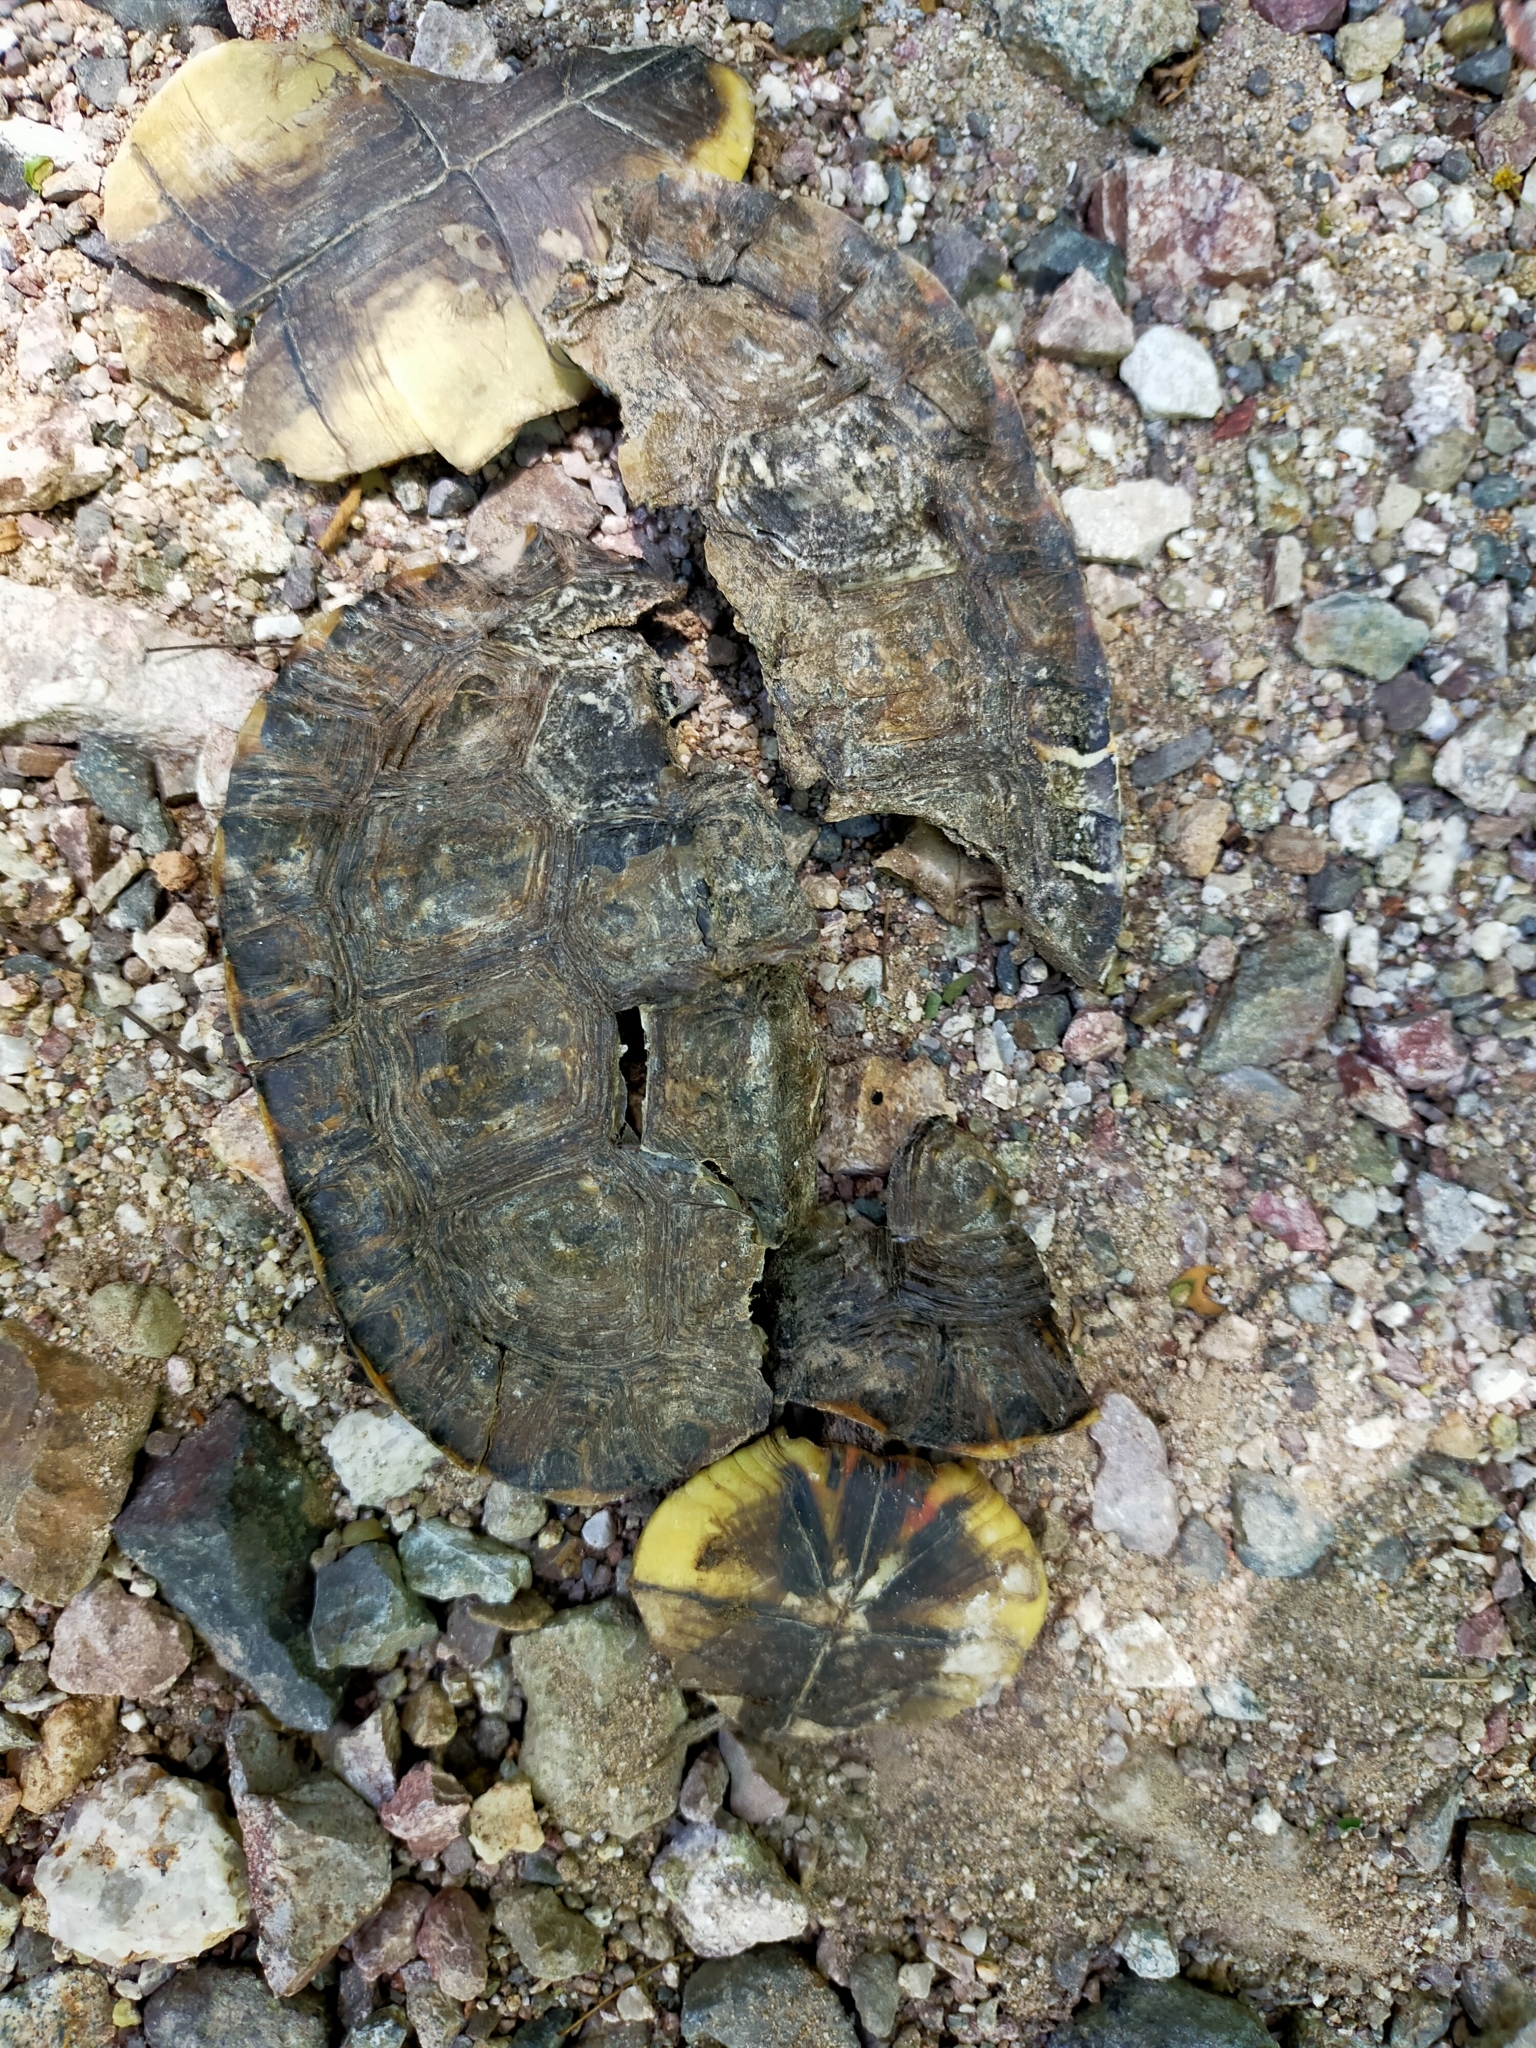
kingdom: Animalia
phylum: Chordata
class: Testudines
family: Geoemydidae
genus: Rhinoclemmys
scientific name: Rhinoclemmys pulcherrima
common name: Painted wood turtle
